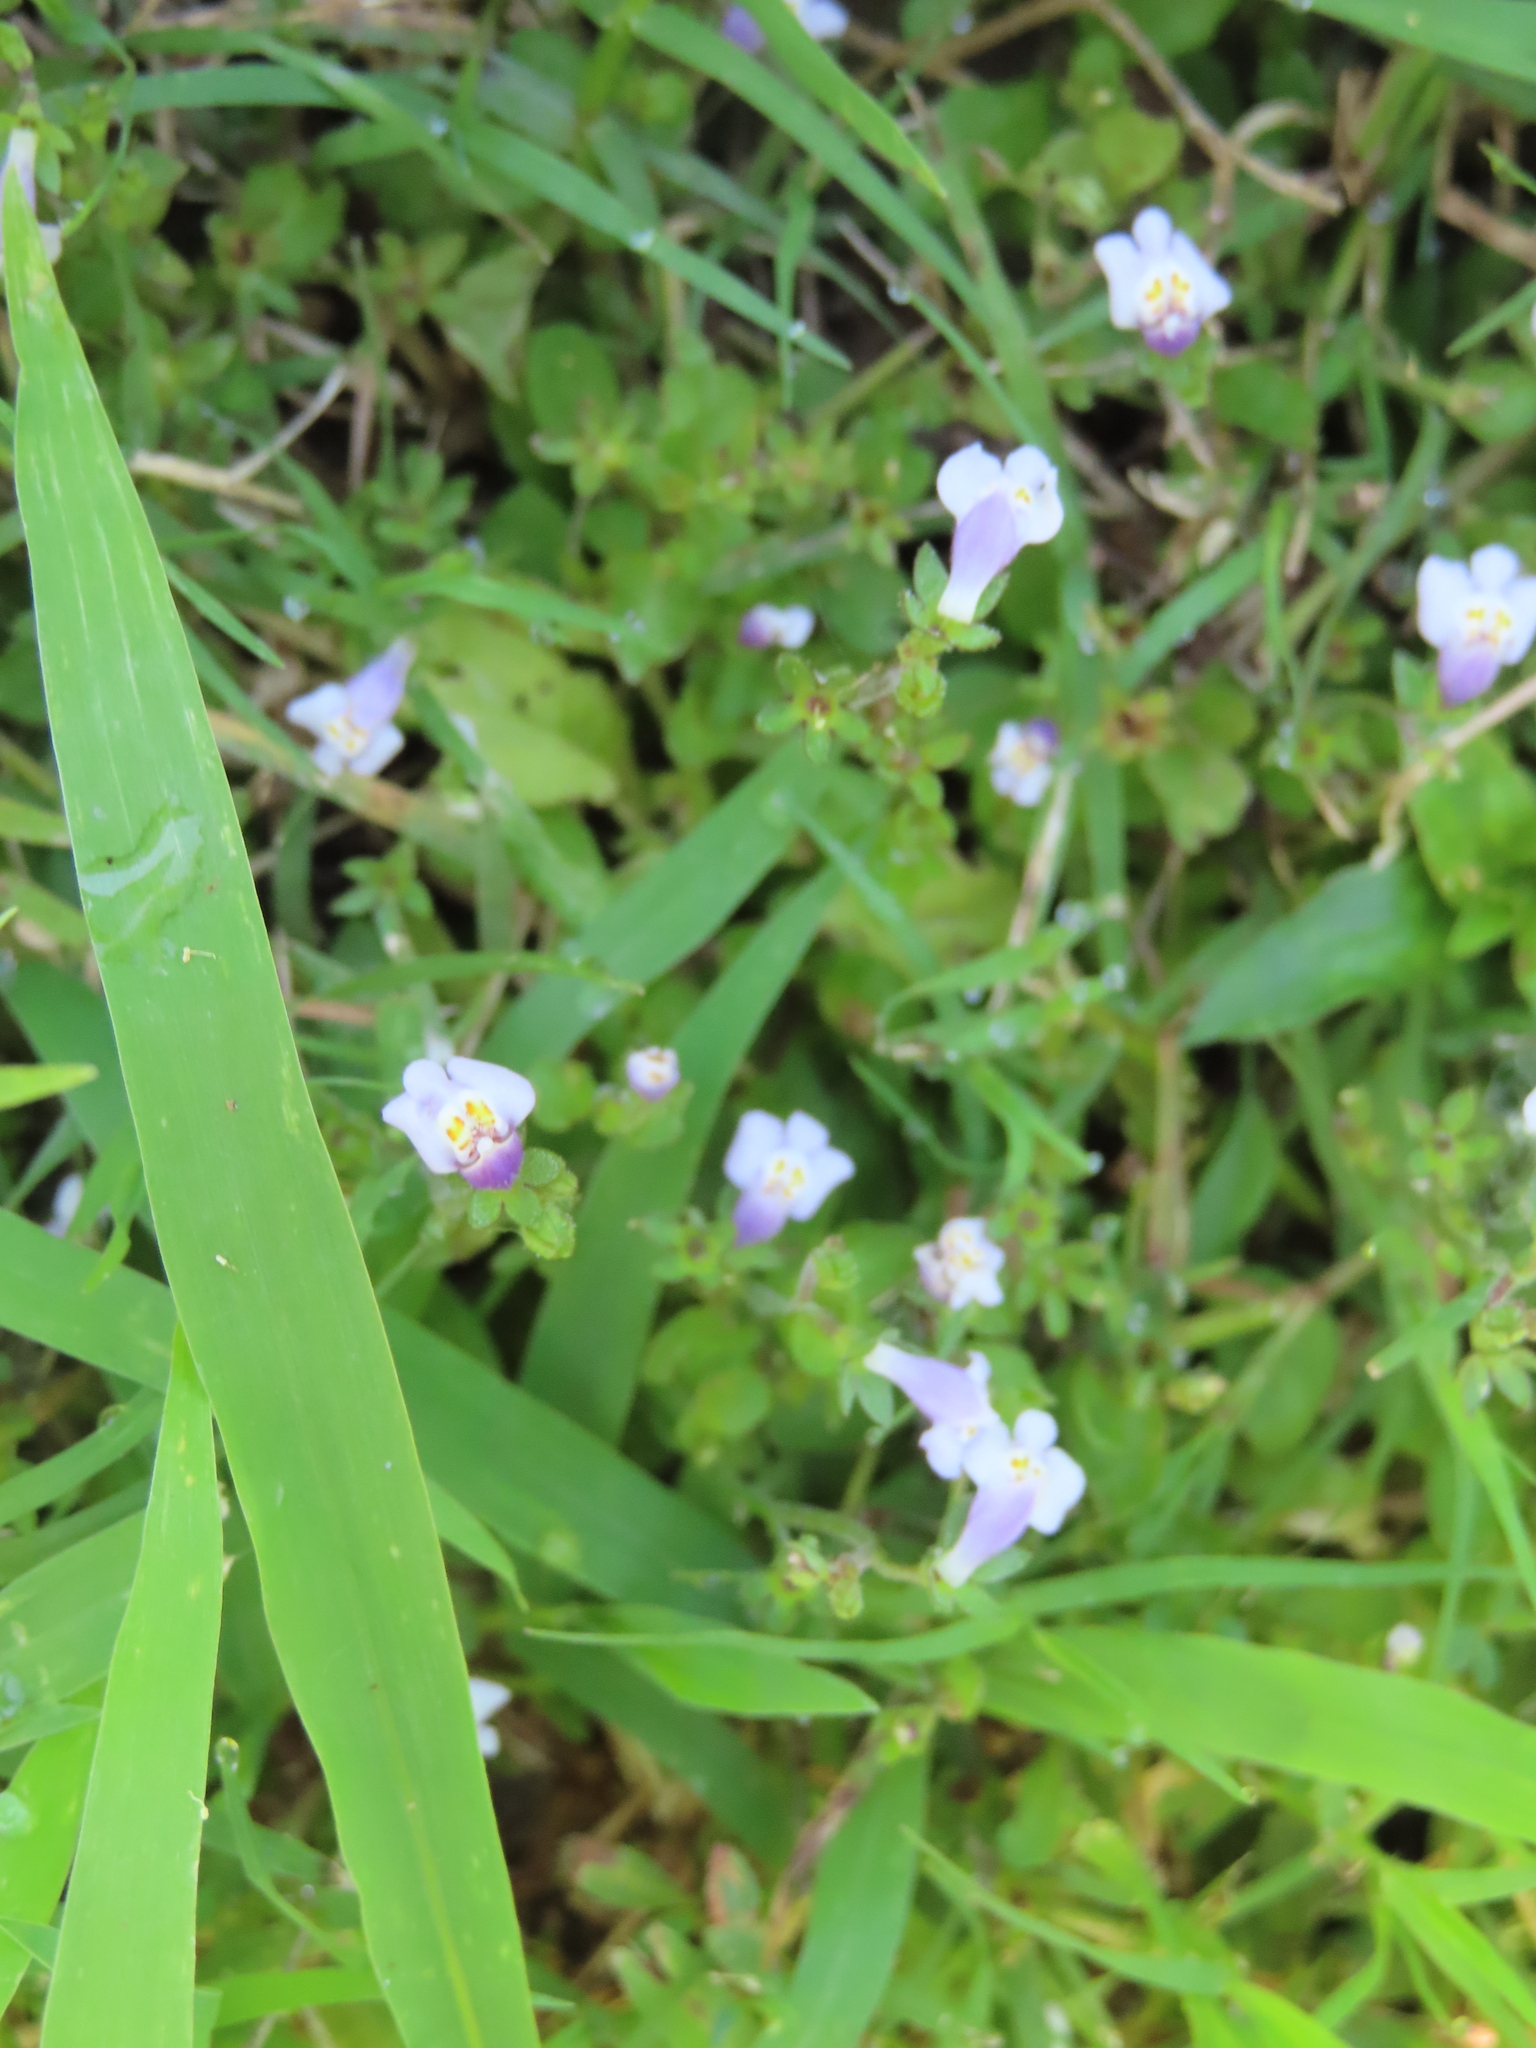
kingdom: Plantae
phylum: Tracheophyta
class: Magnoliopsida
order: Lamiales
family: Mazaceae
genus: Mazus
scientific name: Mazus pumilus
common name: Japanese mazus
